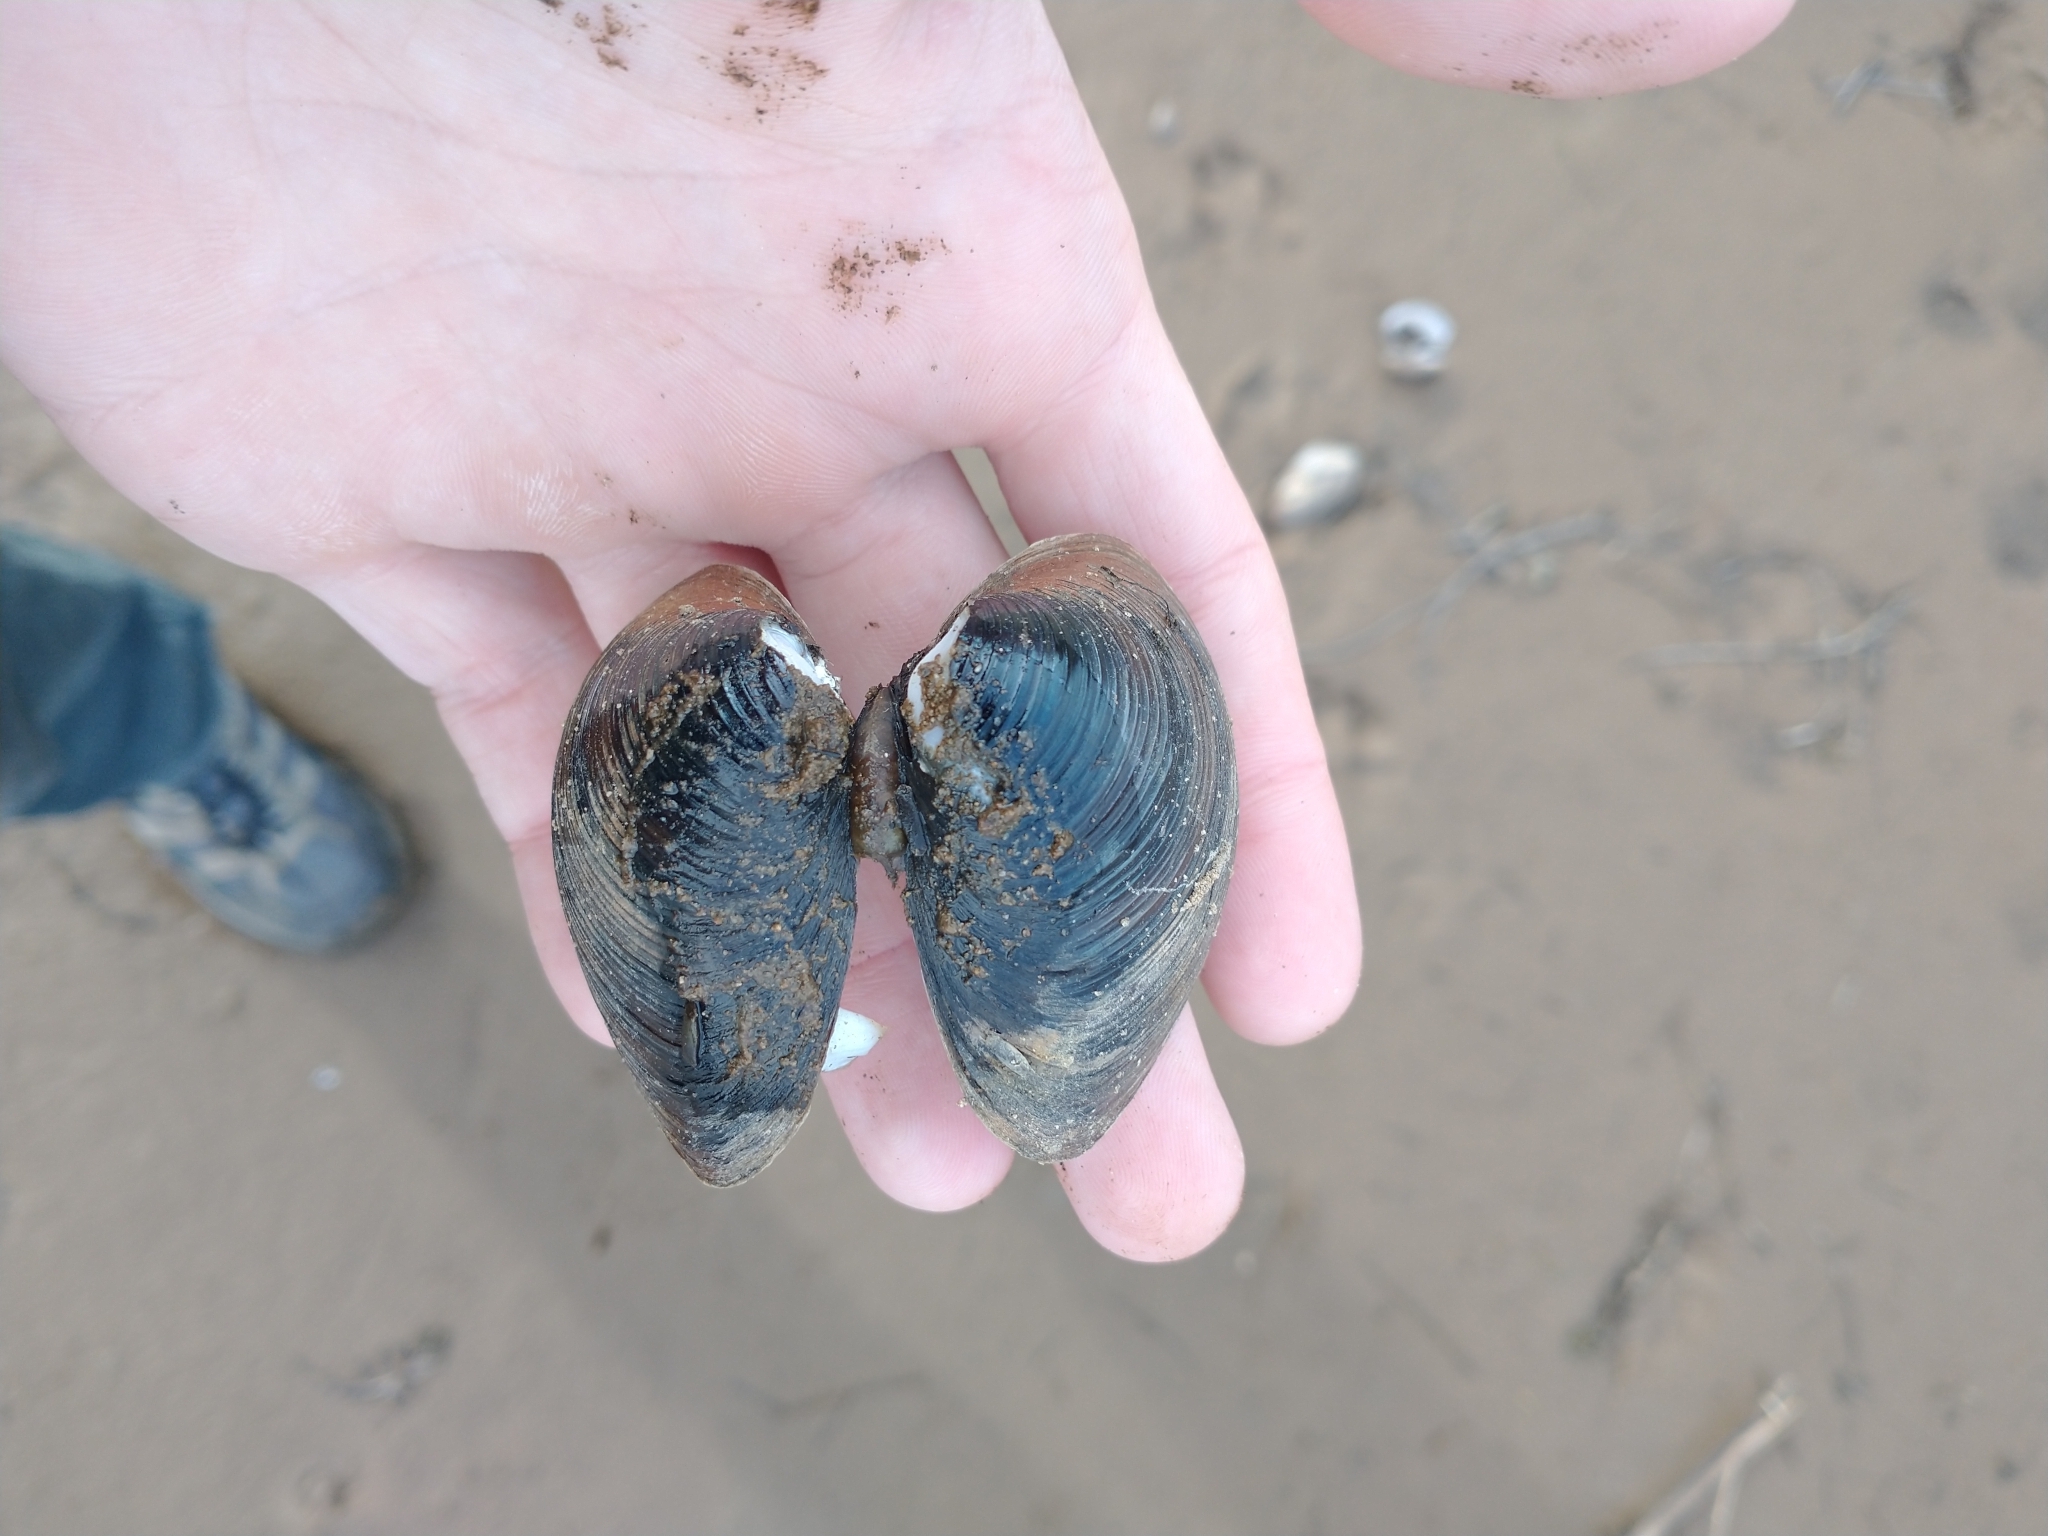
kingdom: Animalia
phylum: Mollusca
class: Bivalvia
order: Venerida
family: Cyrenidae
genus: Corbicula
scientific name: Corbicula fluminea
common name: Asian clam
